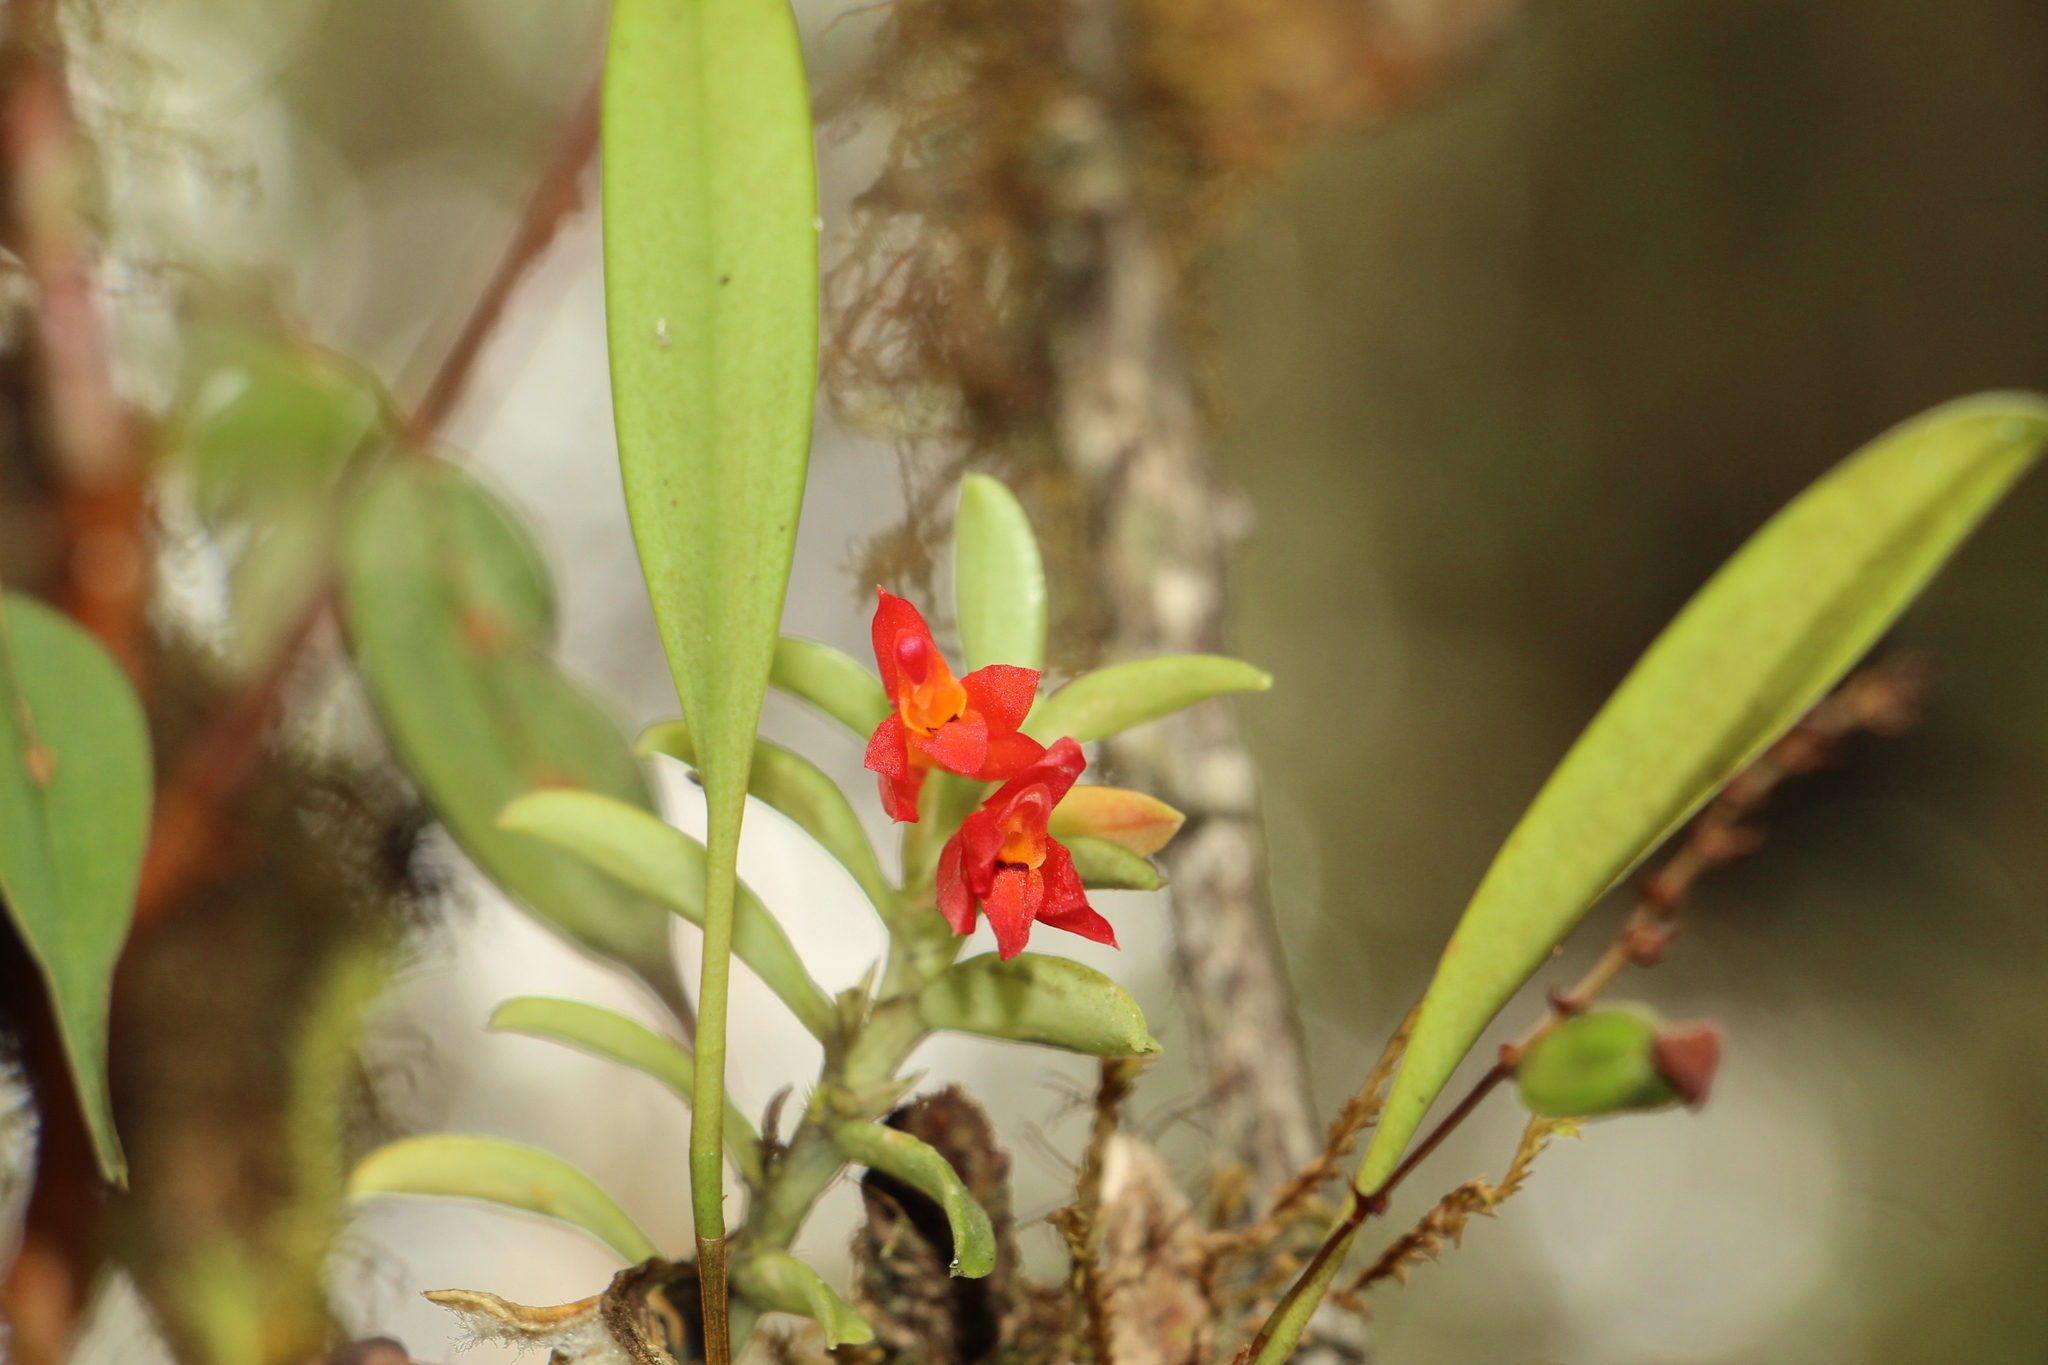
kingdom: Plantae
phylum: Tracheophyta
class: Liliopsida
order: Asparagales
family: Orchidaceae
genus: Fernandezia
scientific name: Fernandezia sanguinea
